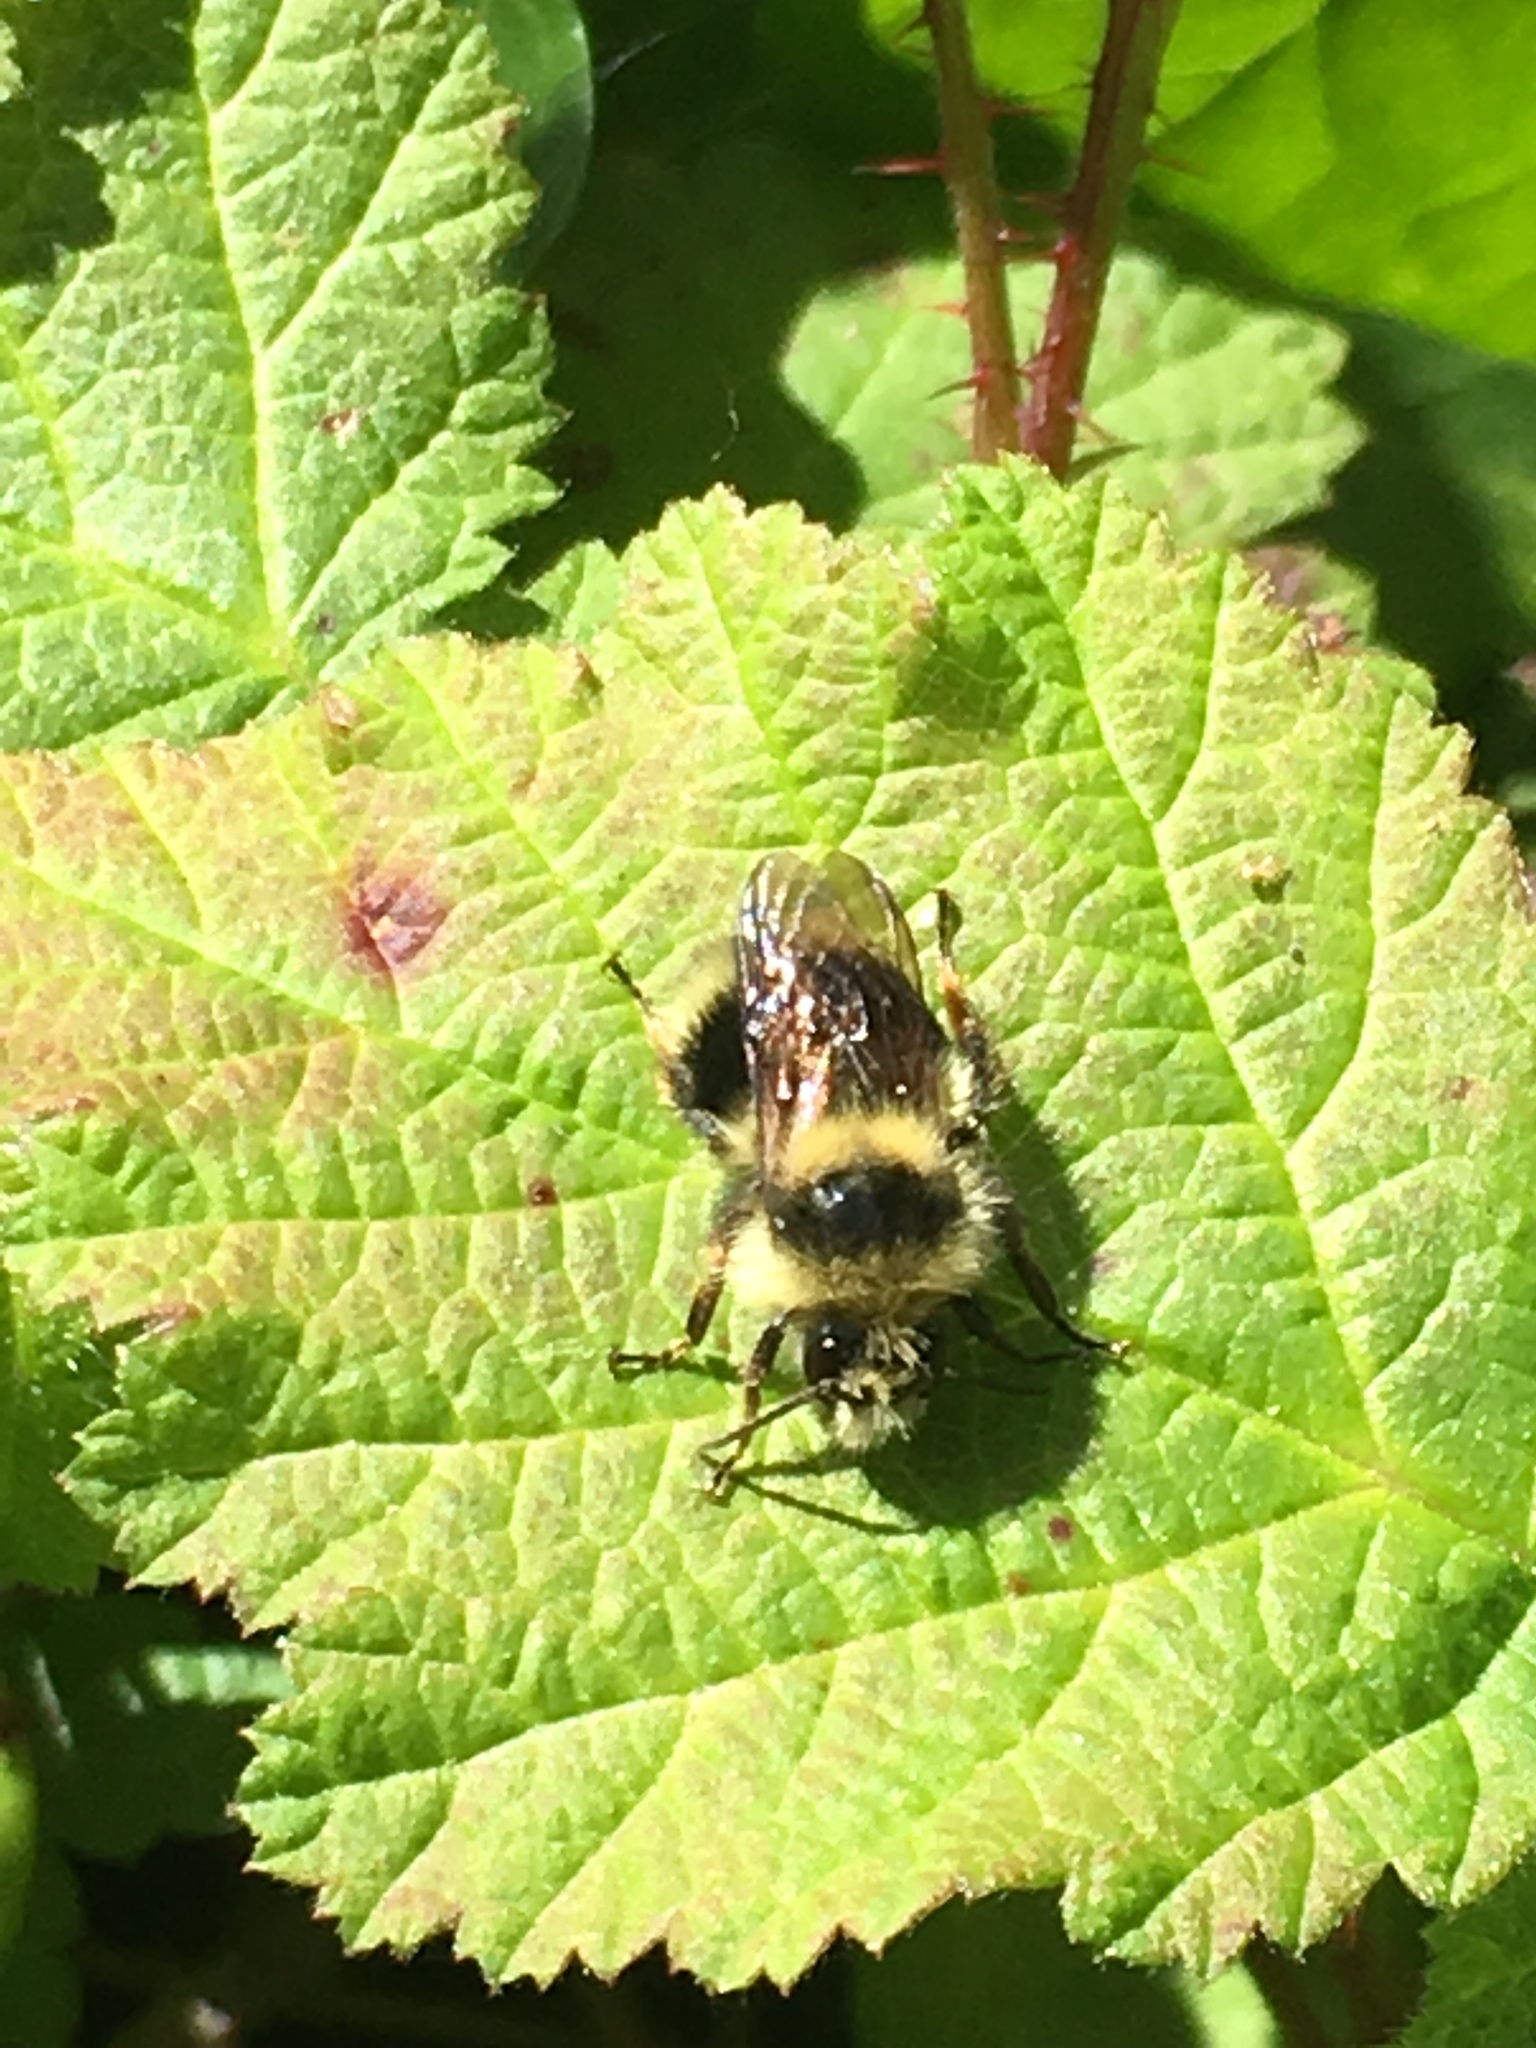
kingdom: Animalia
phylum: Arthropoda
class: Insecta
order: Hymenoptera
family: Apidae
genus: Bombus
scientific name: Bombus melanopygus
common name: Black tail bumble bee
